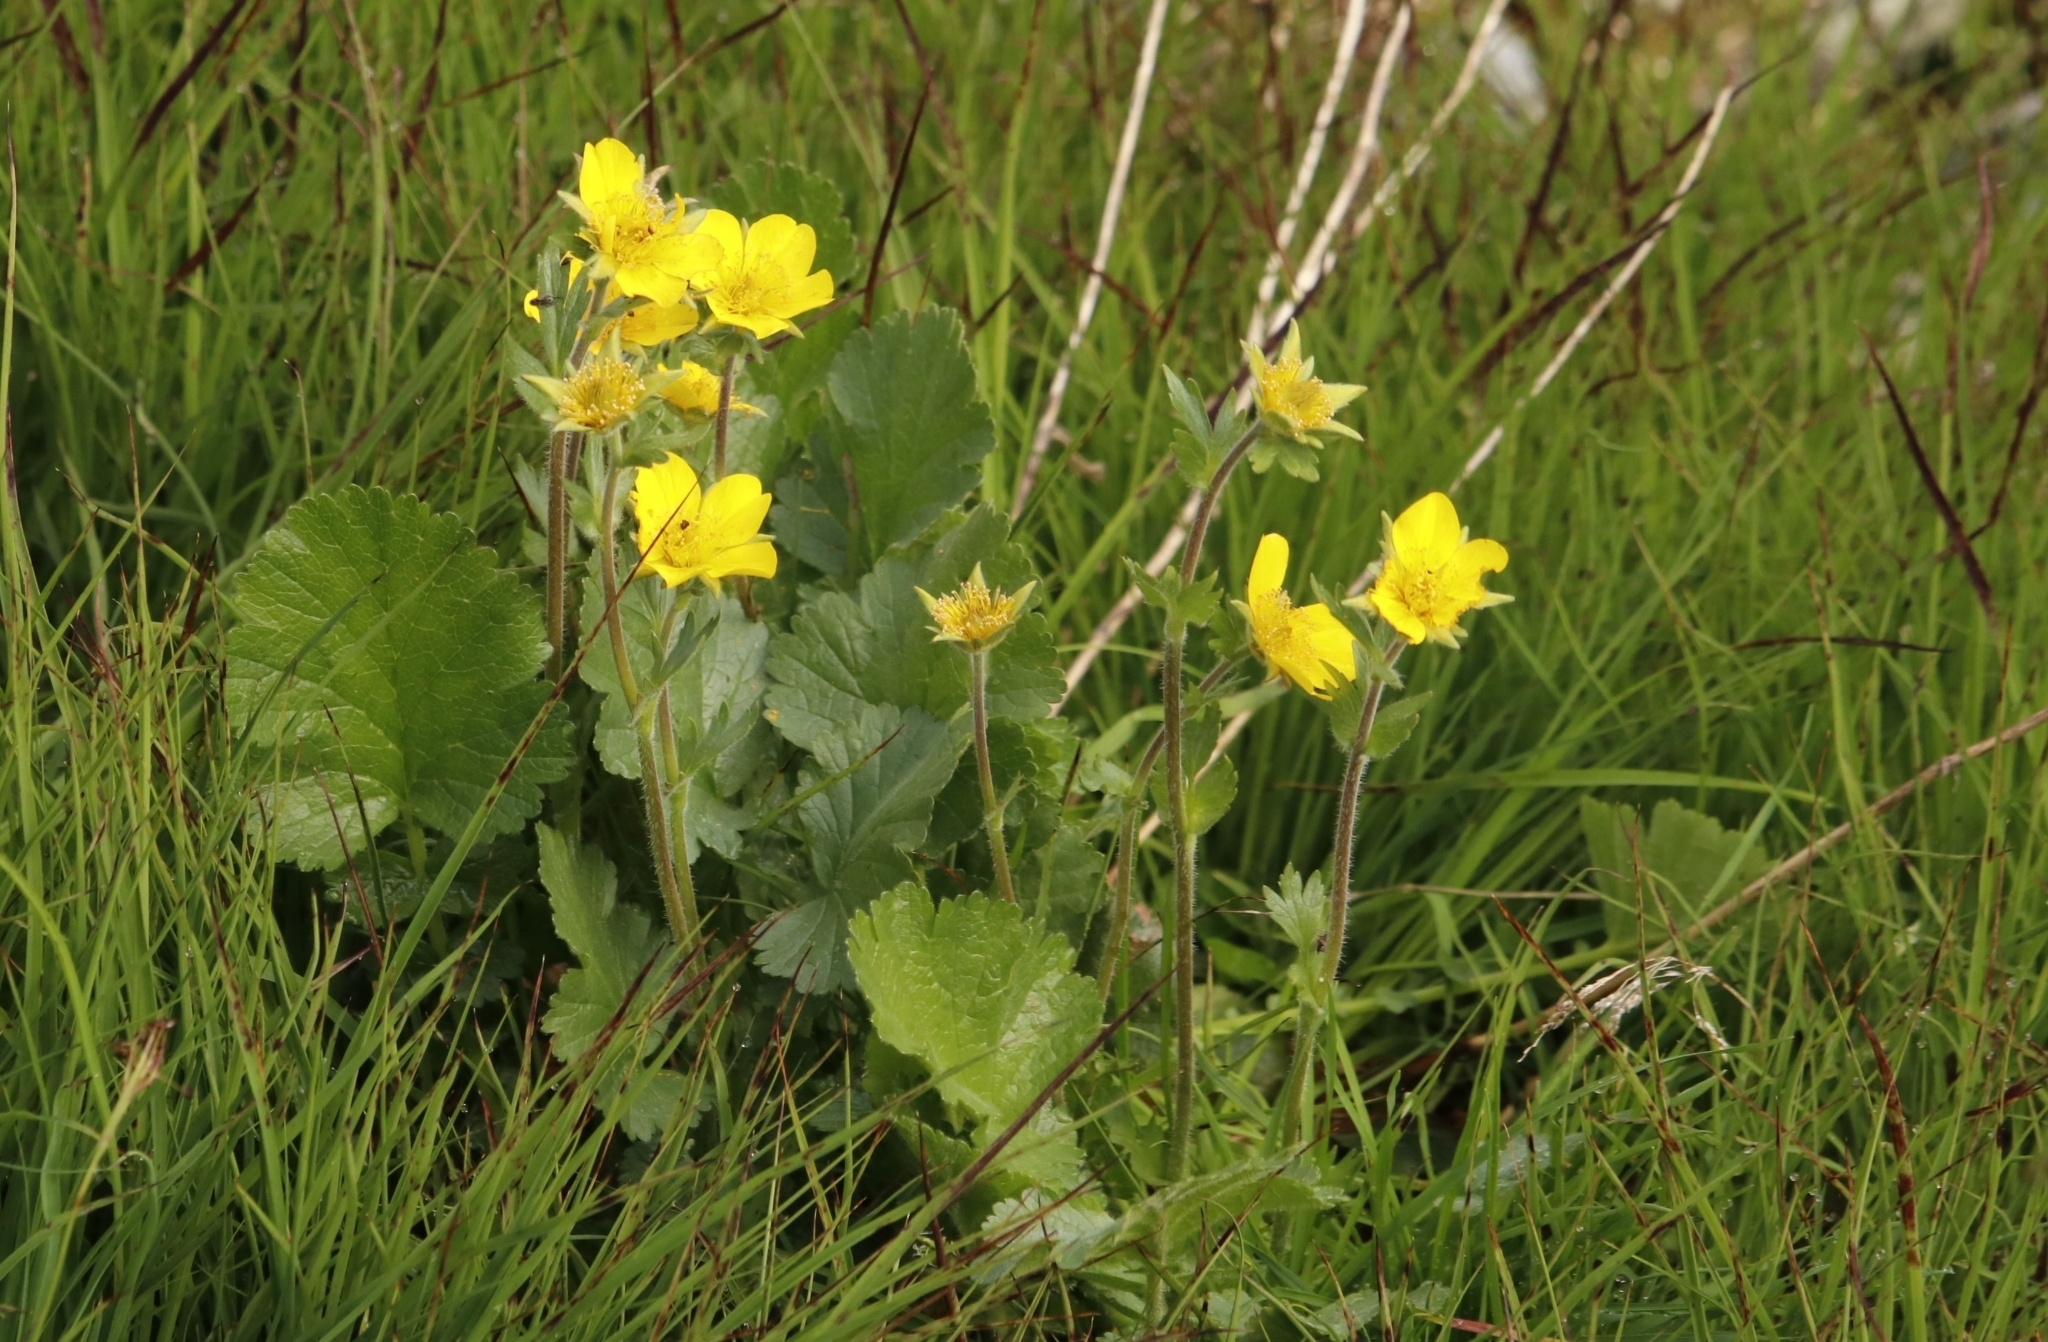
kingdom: Plantae
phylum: Tracheophyta
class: Magnoliopsida
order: Rosales
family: Rosaceae
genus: Geum
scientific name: Geum montanum
